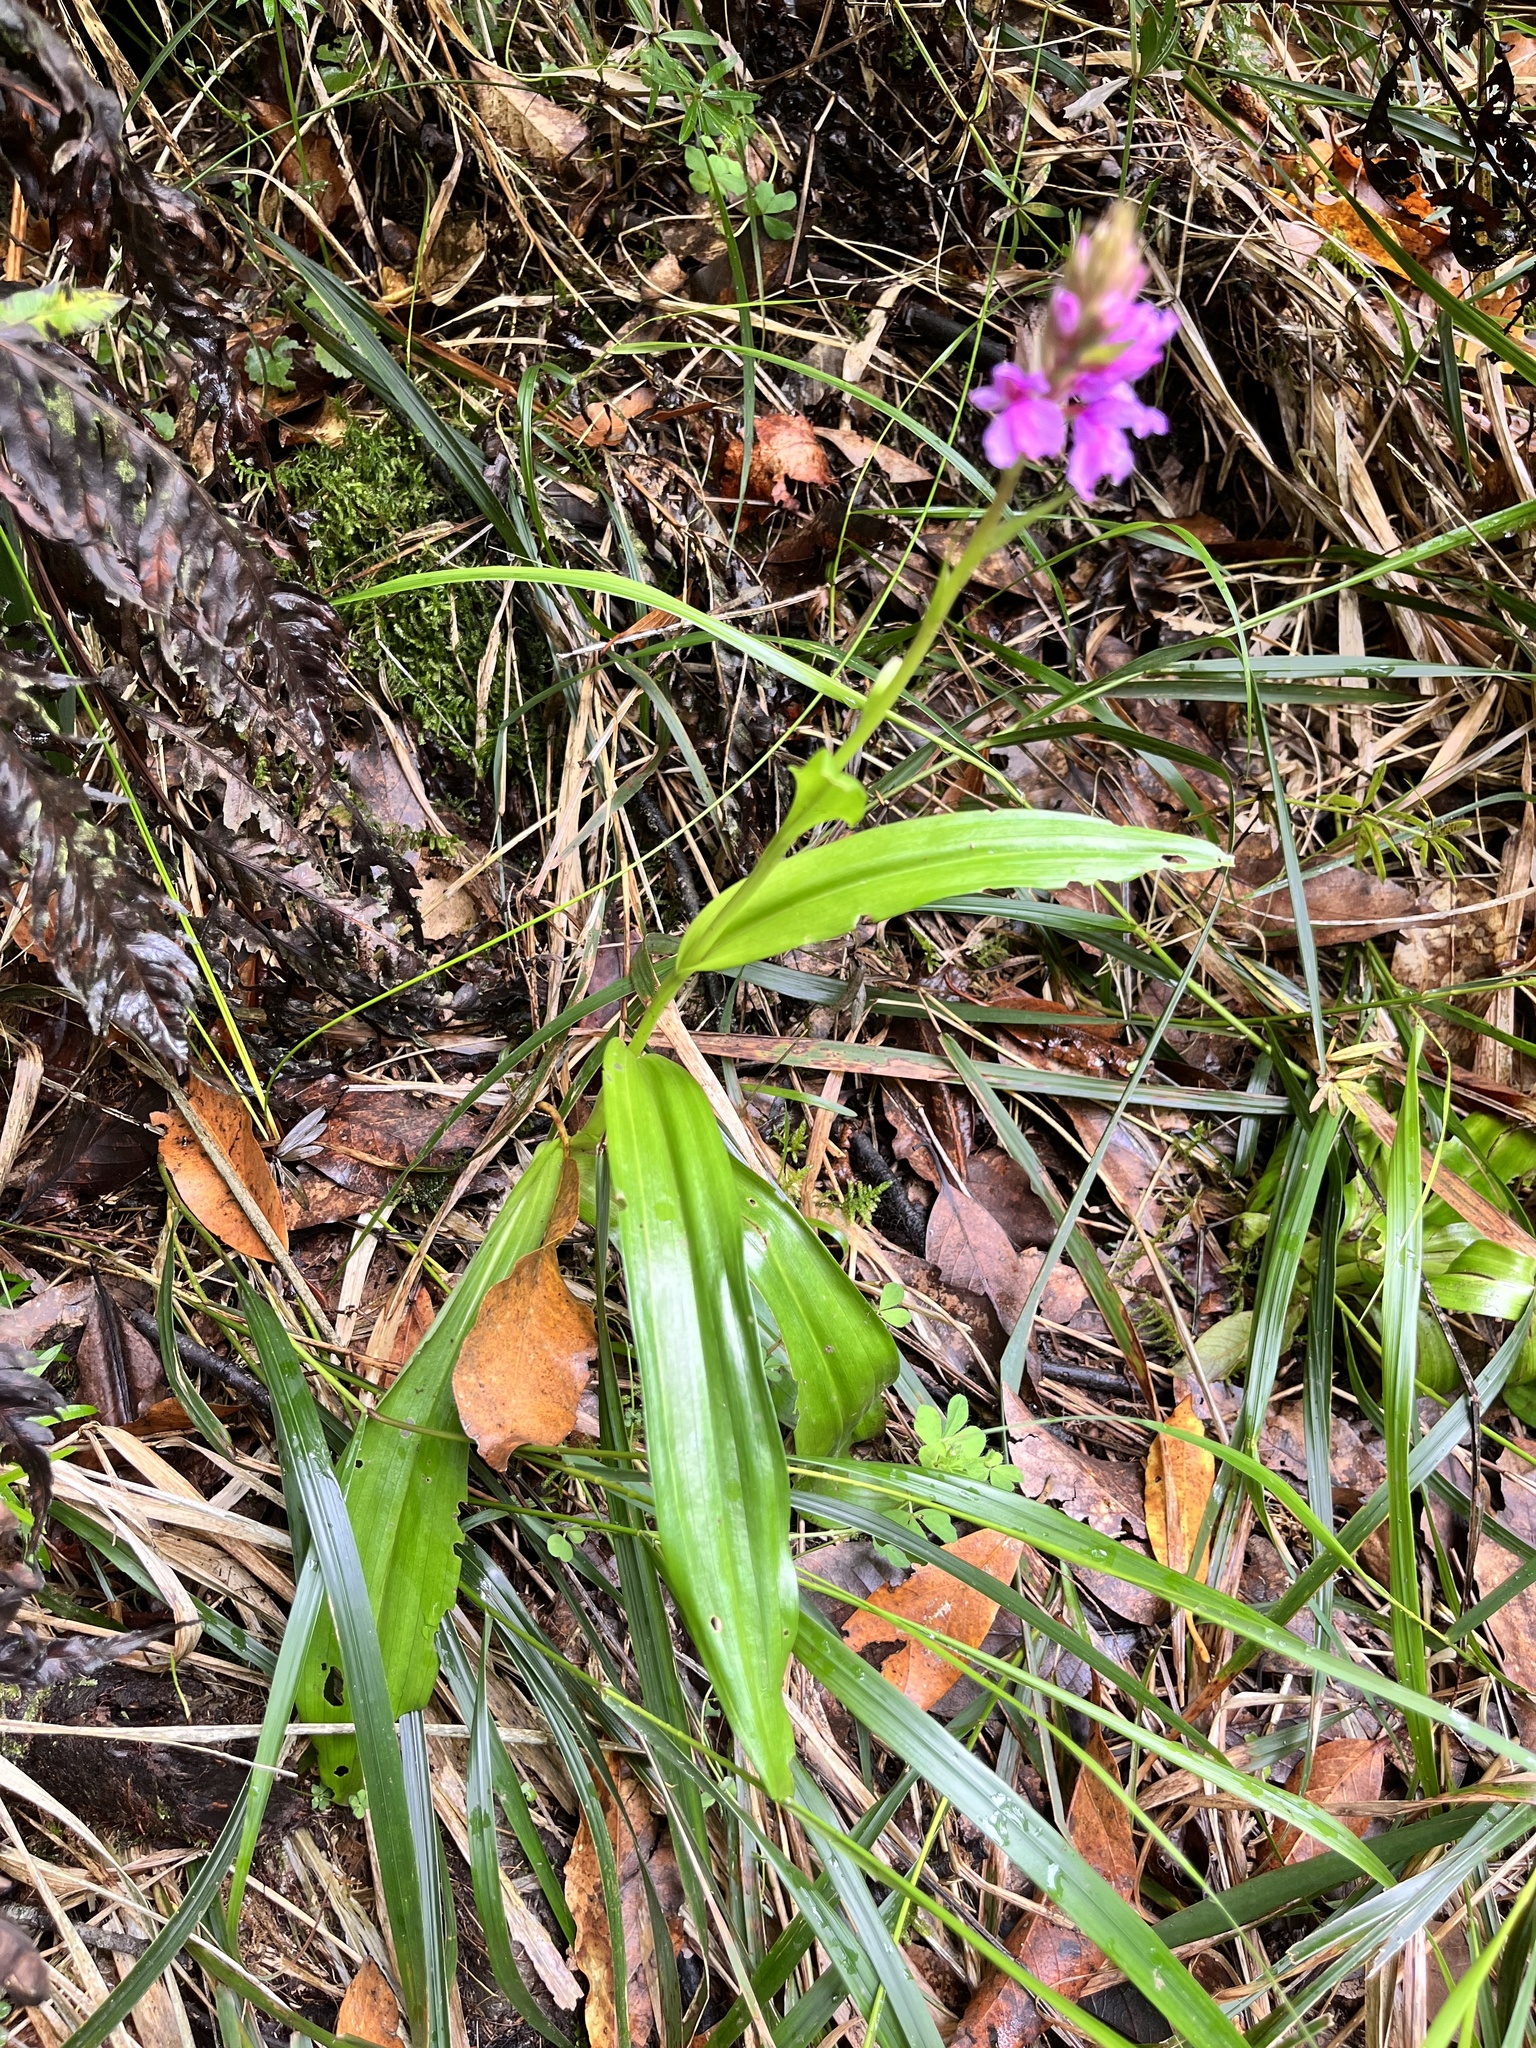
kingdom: Plantae
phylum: Tracheophyta
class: Liliopsida
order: Asparagales
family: Orchidaceae
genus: Dactylorhiza
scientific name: Dactylorhiza foliosa
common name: Richly-leaved dactylorhiza
